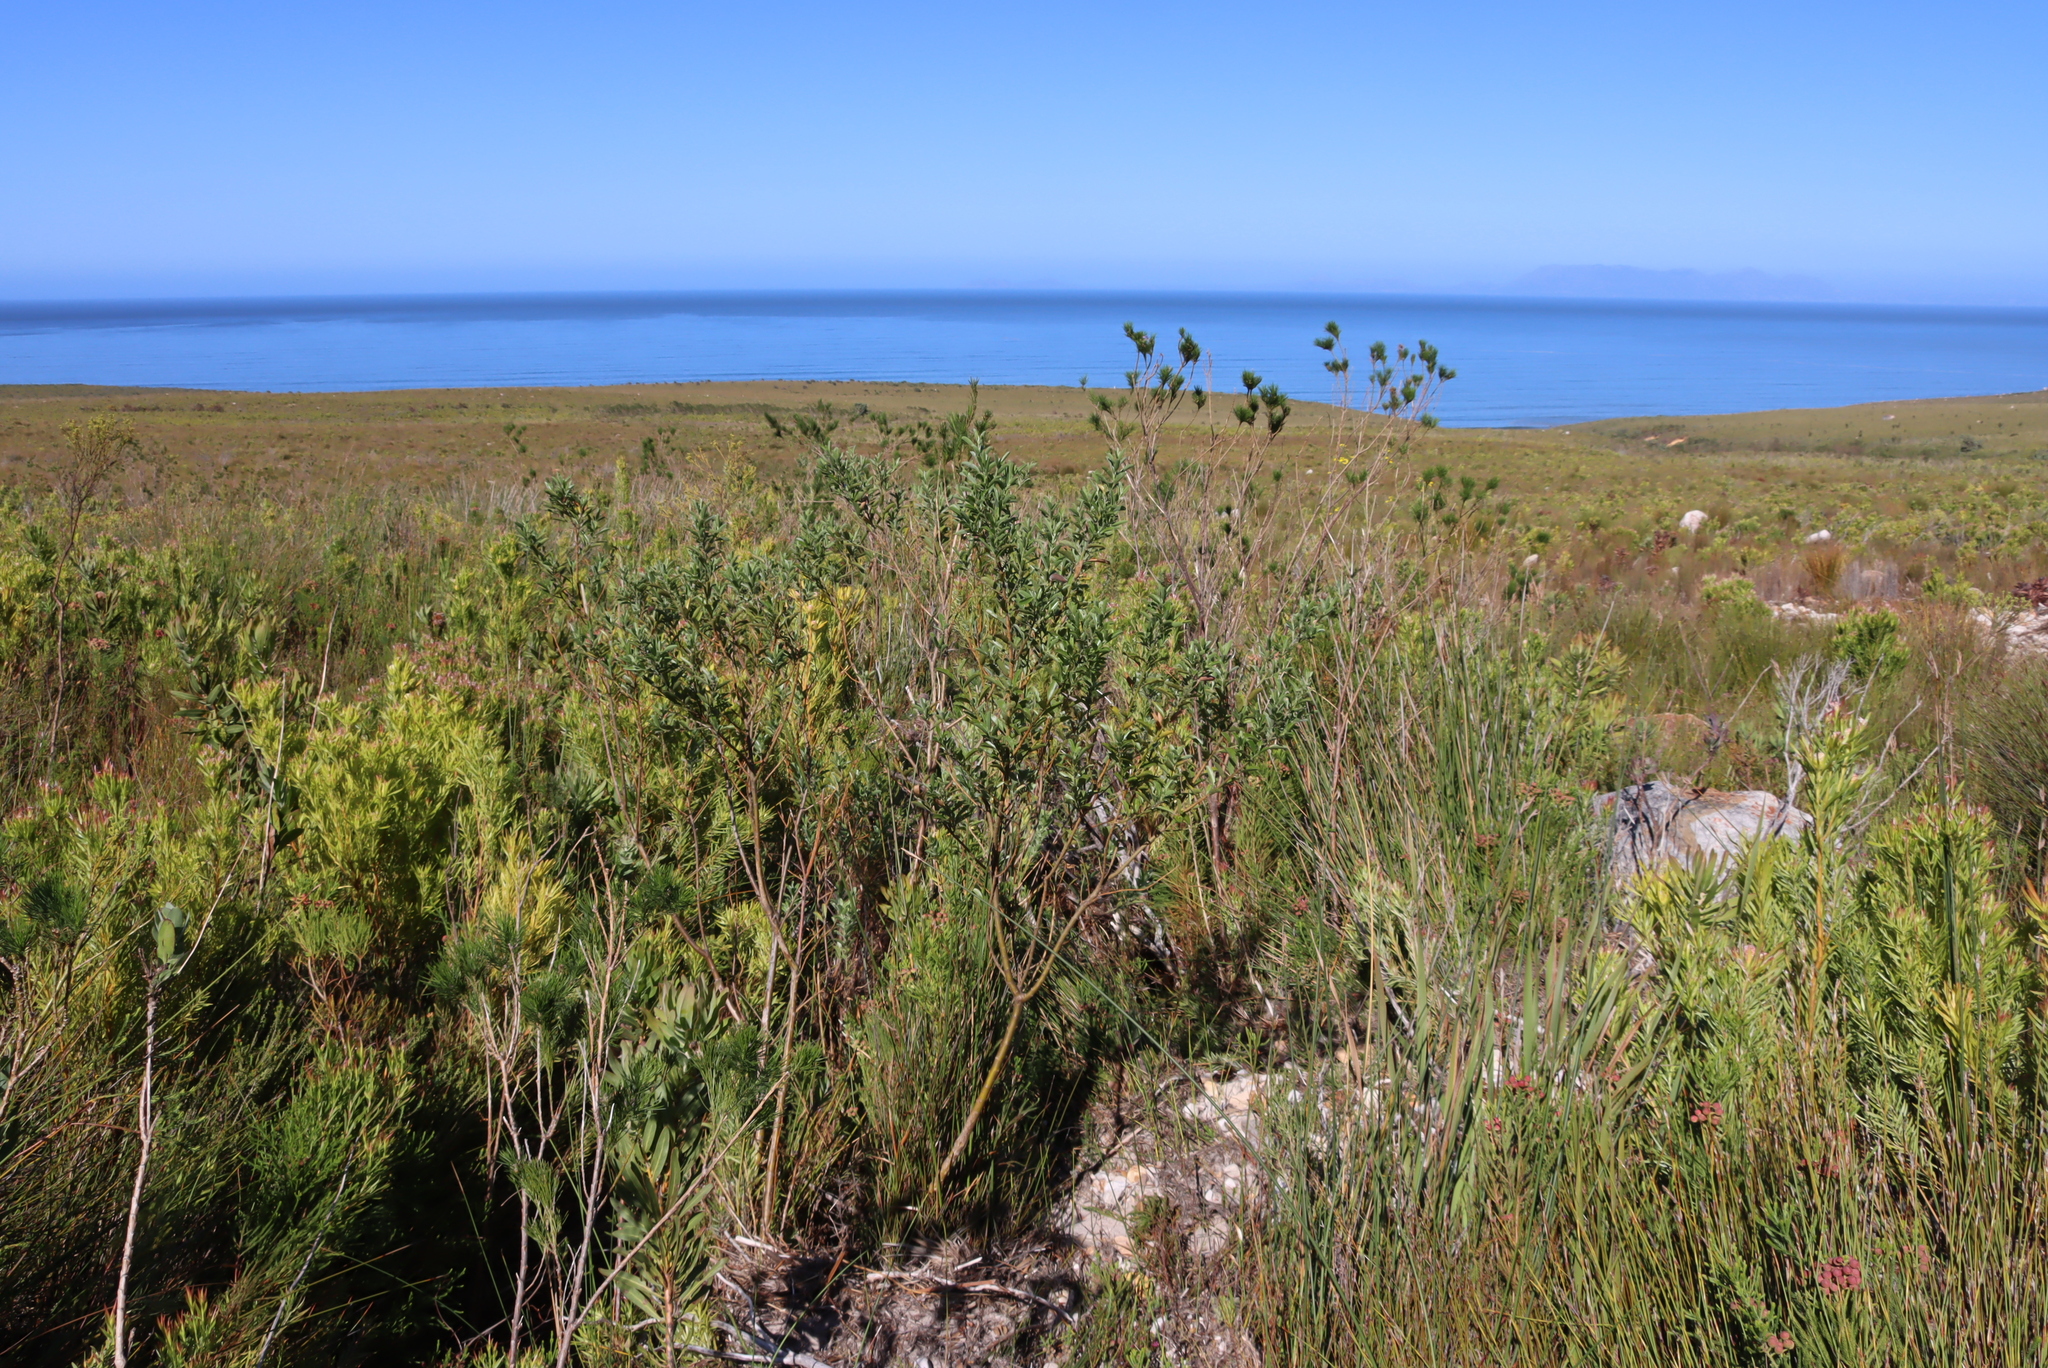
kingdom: Plantae
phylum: Tracheophyta
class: Magnoliopsida
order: Fabales
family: Fabaceae
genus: Podalyria
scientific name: Podalyria calyptrata
